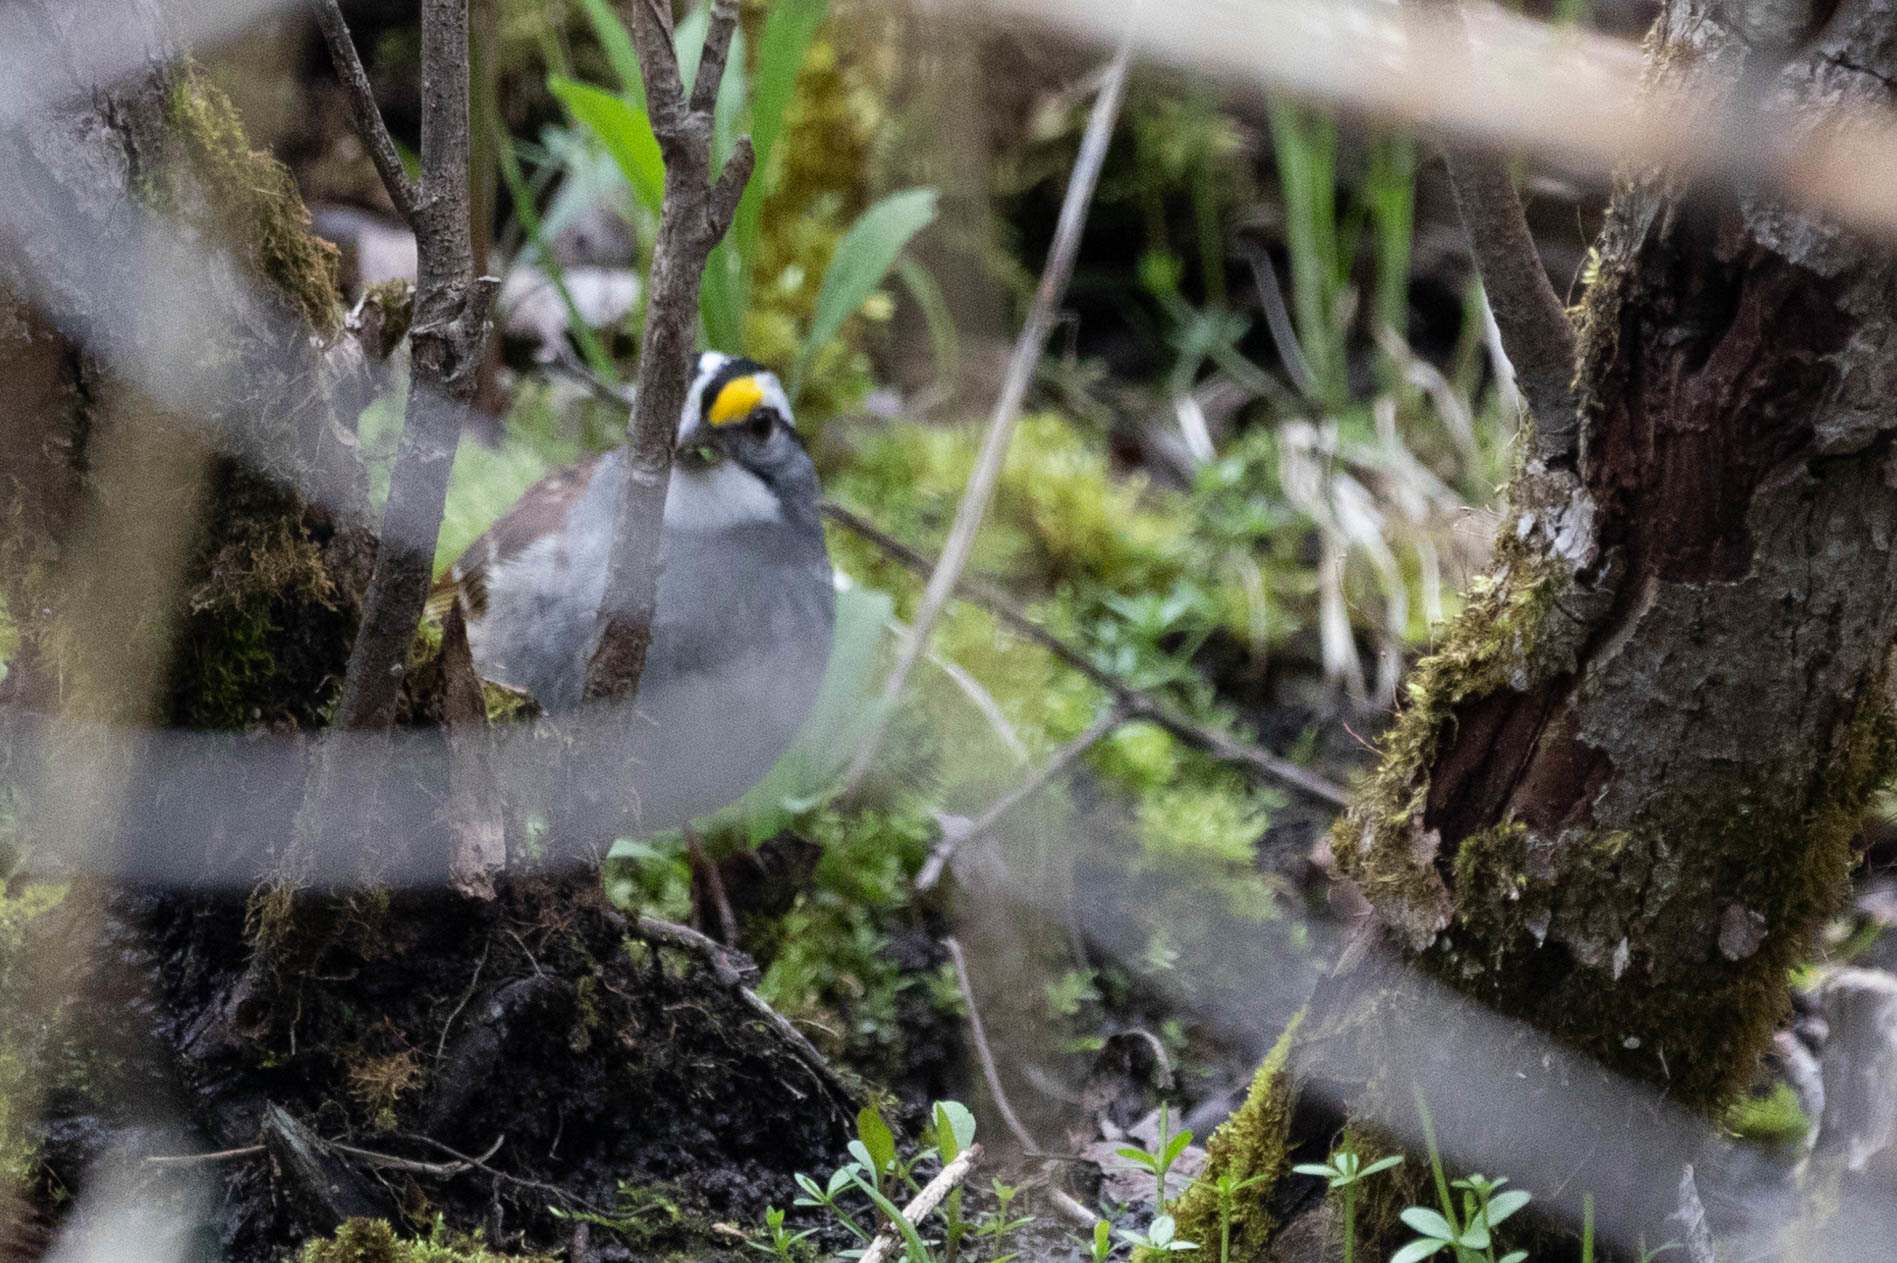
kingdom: Animalia
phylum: Chordata
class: Aves
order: Passeriformes
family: Passerellidae
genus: Zonotrichia
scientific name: Zonotrichia albicollis
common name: White-throated sparrow
